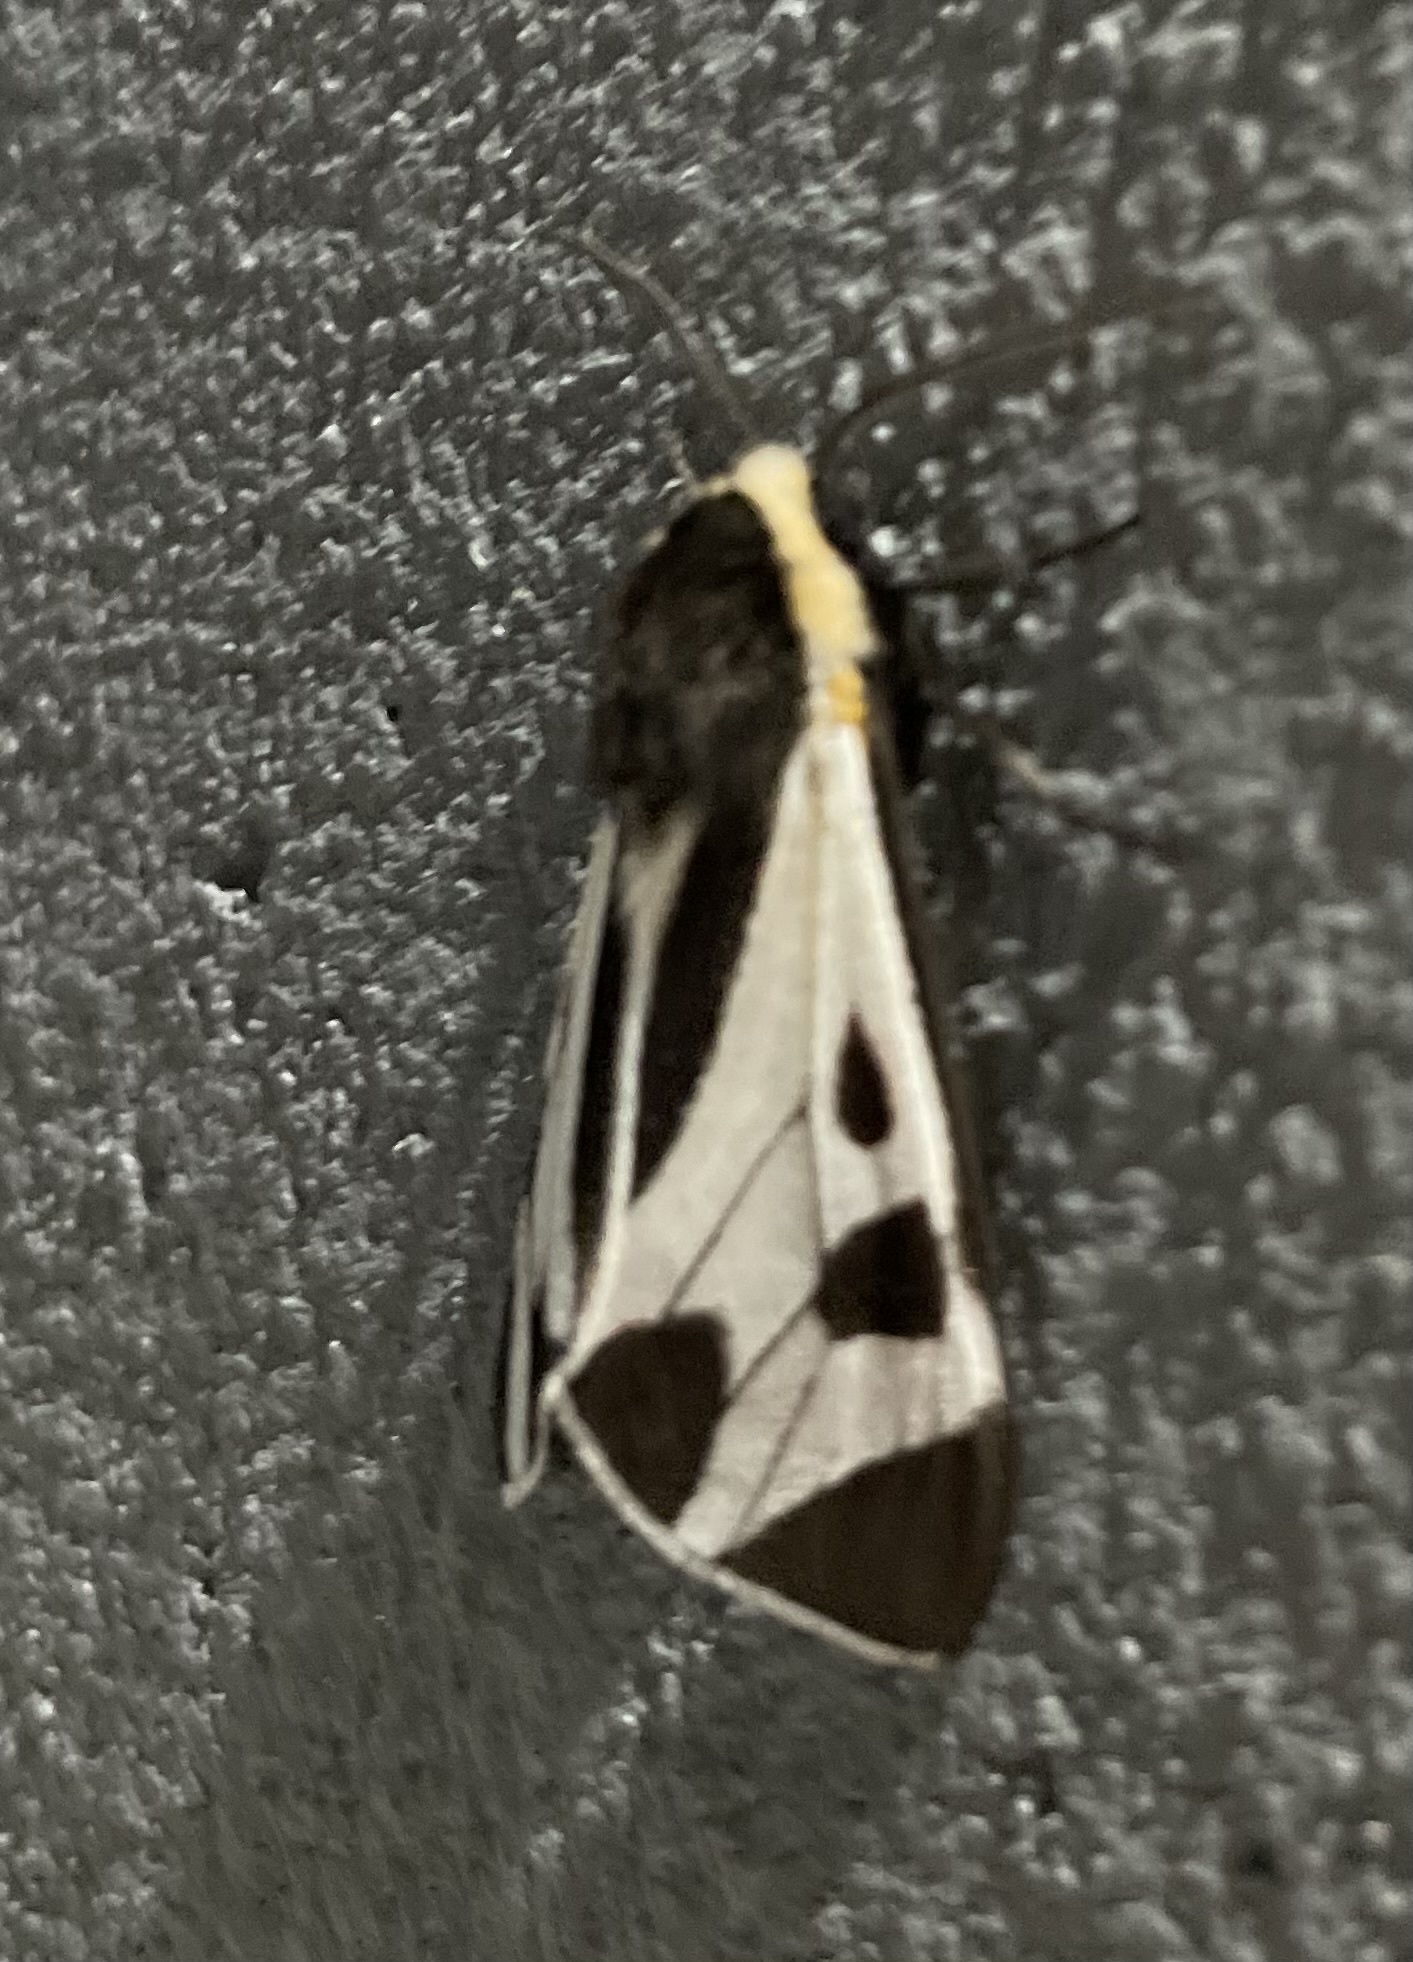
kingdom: Animalia
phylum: Arthropoda
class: Insecta
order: Lepidoptera
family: Erebidae
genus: Dysschema
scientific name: Dysschema centenaria
